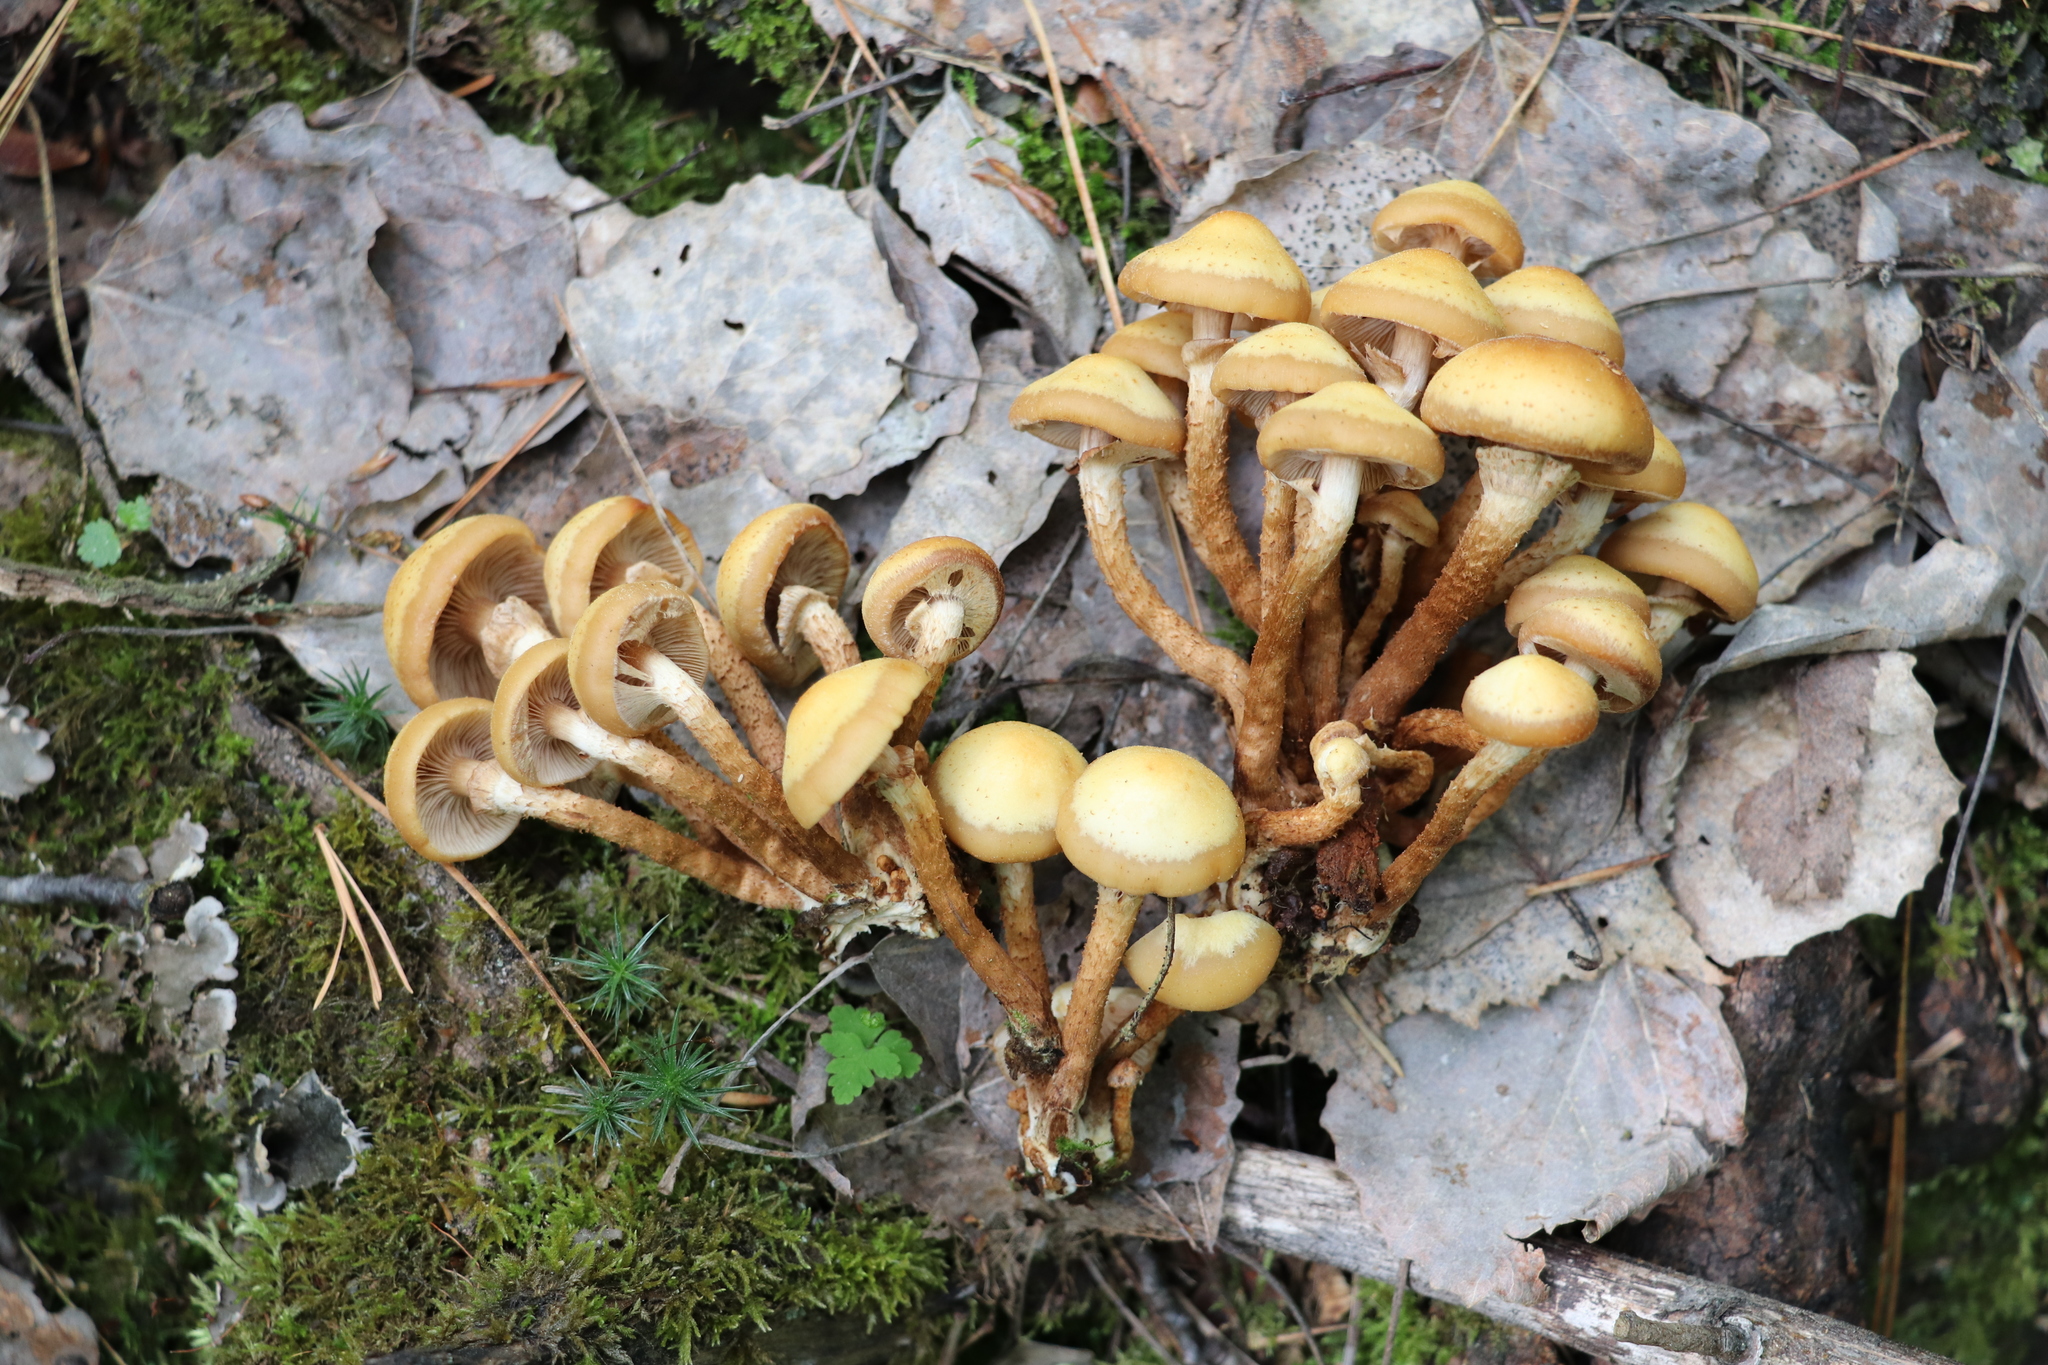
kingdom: Fungi
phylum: Basidiomycota
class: Agaricomycetes
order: Agaricales
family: Strophariaceae
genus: Kuehneromyces
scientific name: Kuehneromyces mutabilis
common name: Sheathed woodtuft
